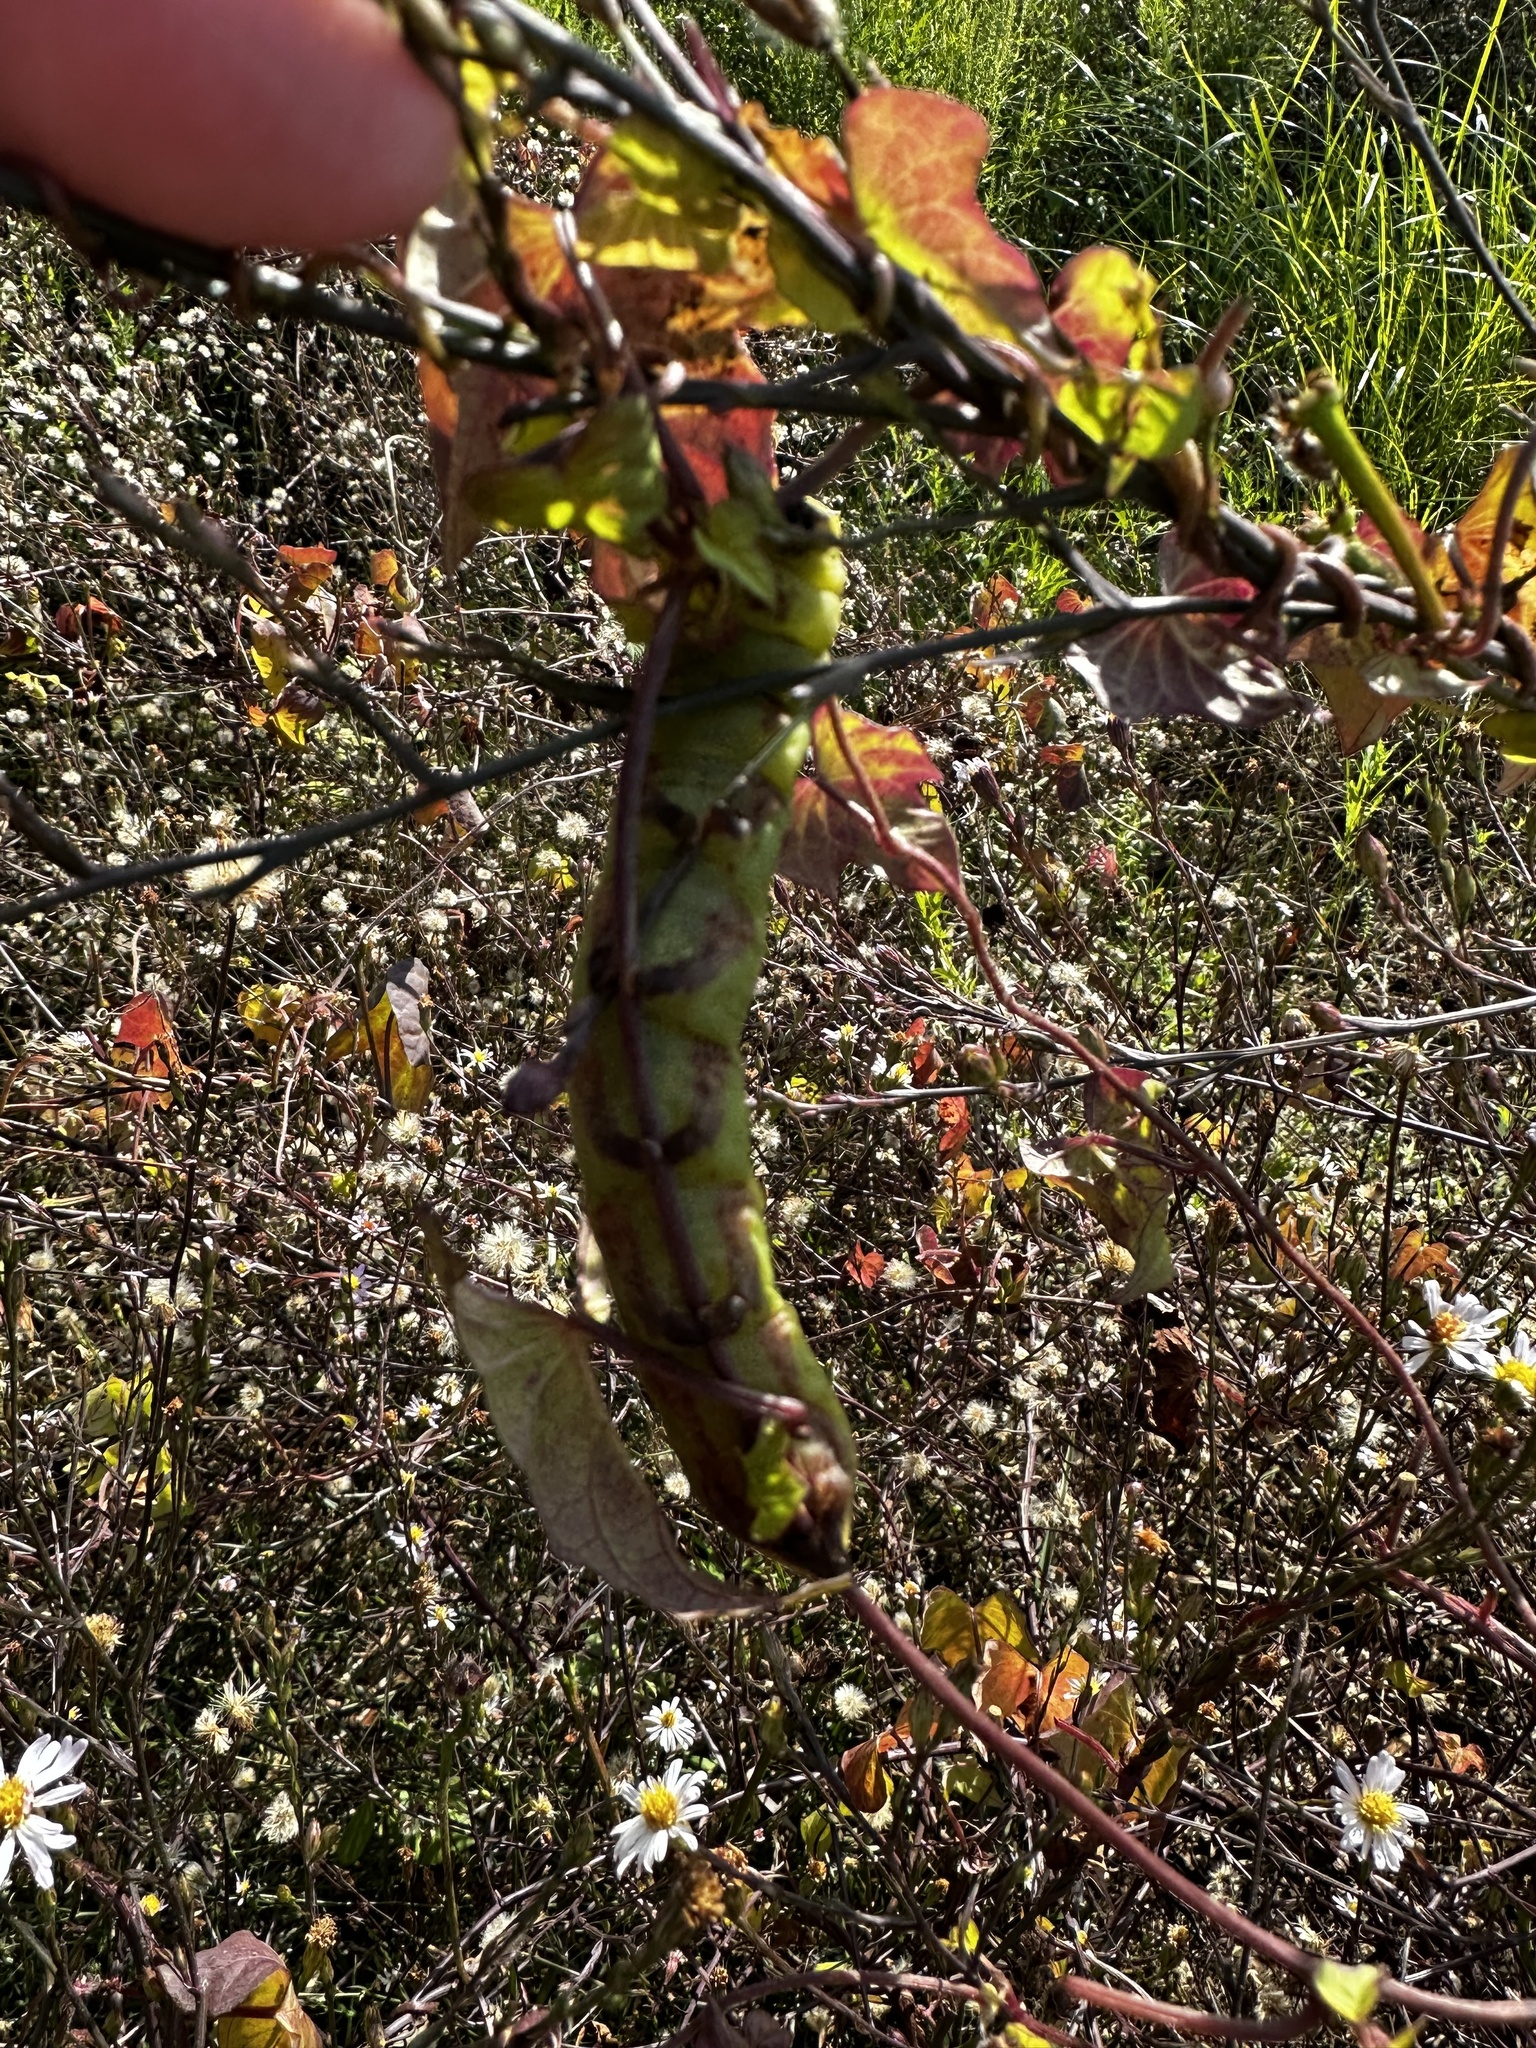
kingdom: Animalia
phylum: Arthropoda
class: Insecta
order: Lepidoptera
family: Sphingidae
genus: Agrius
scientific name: Agrius cingulata
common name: Pink-spotted hawkmoth
